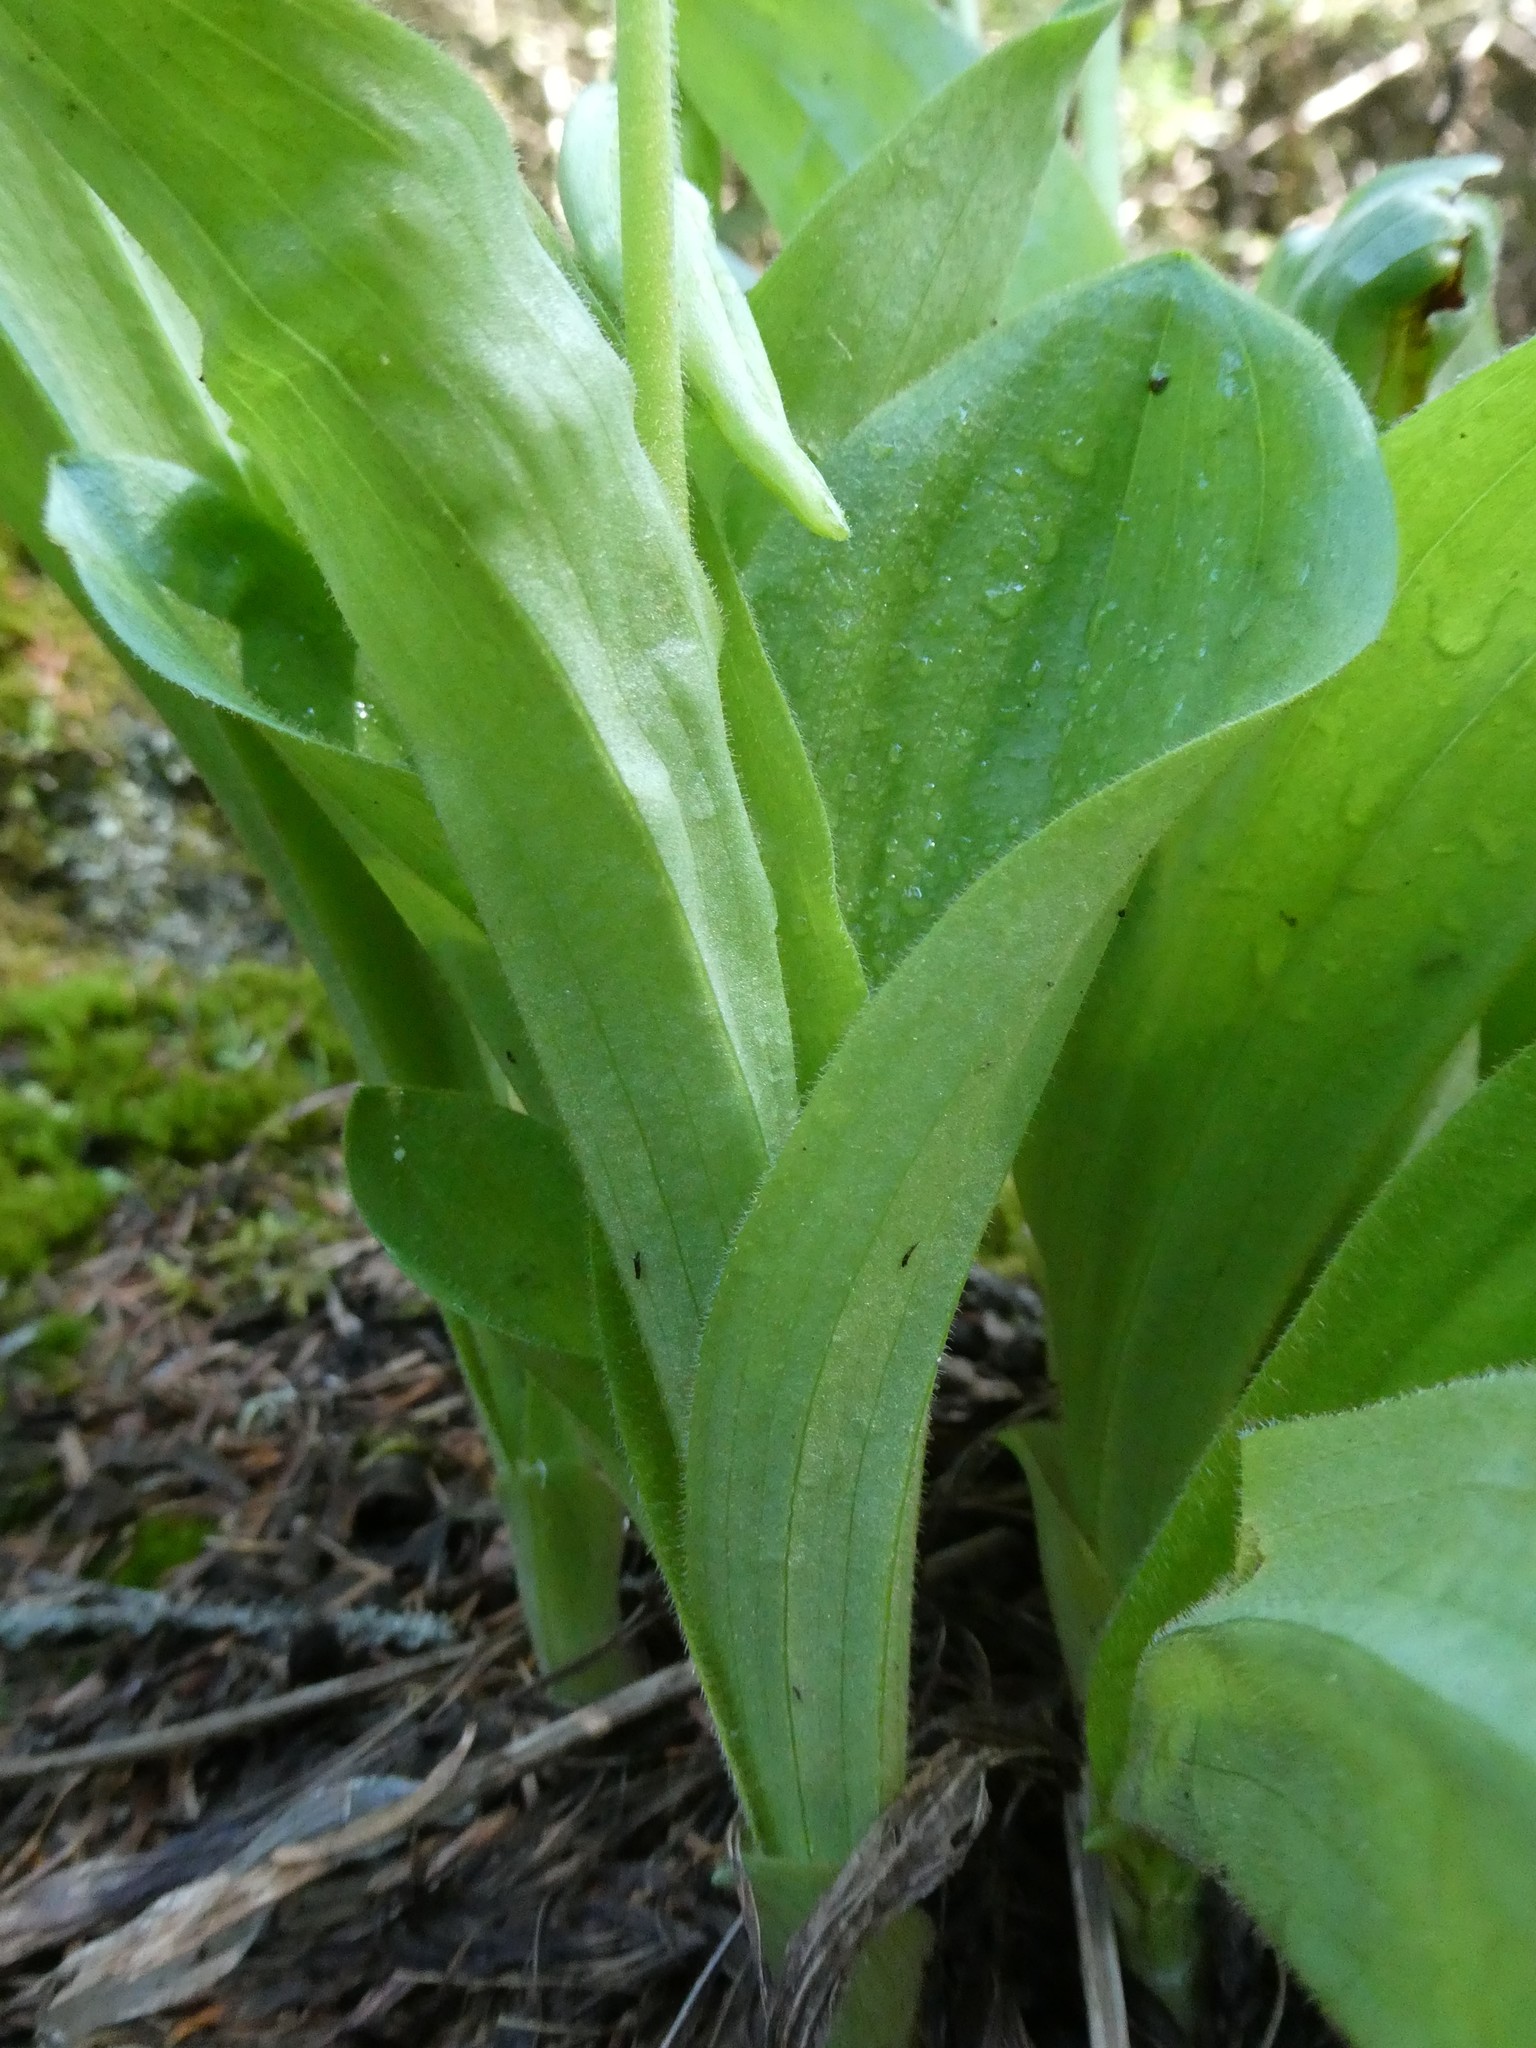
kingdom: Plantae
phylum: Tracheophyta
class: Liliopsida
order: Asparagales
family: Orchidaceae
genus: Cypripedium
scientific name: Cypripedium acaule
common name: Pink lady's-slipper
